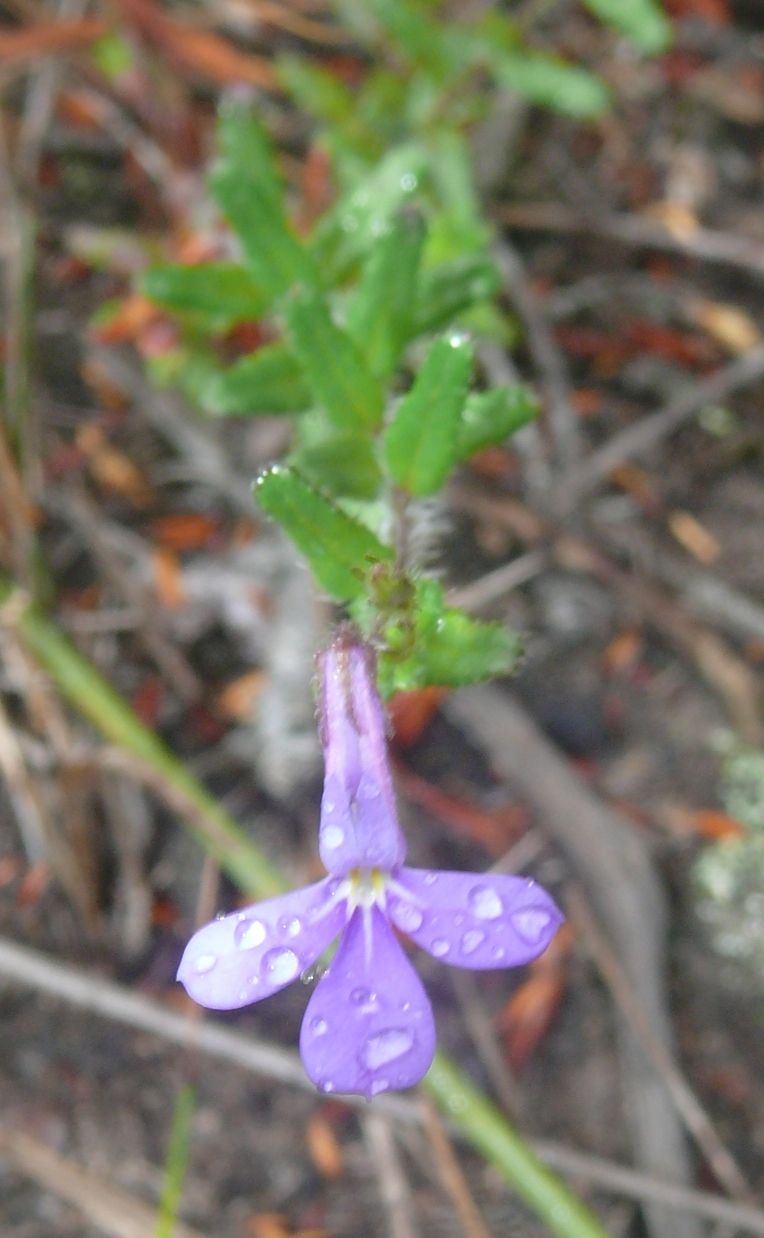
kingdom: Plantae
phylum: Tracheophyta
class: Magnoliopsida
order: Asterales
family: Campanulaceae
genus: Lobelia
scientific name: Lobelia neglecta
